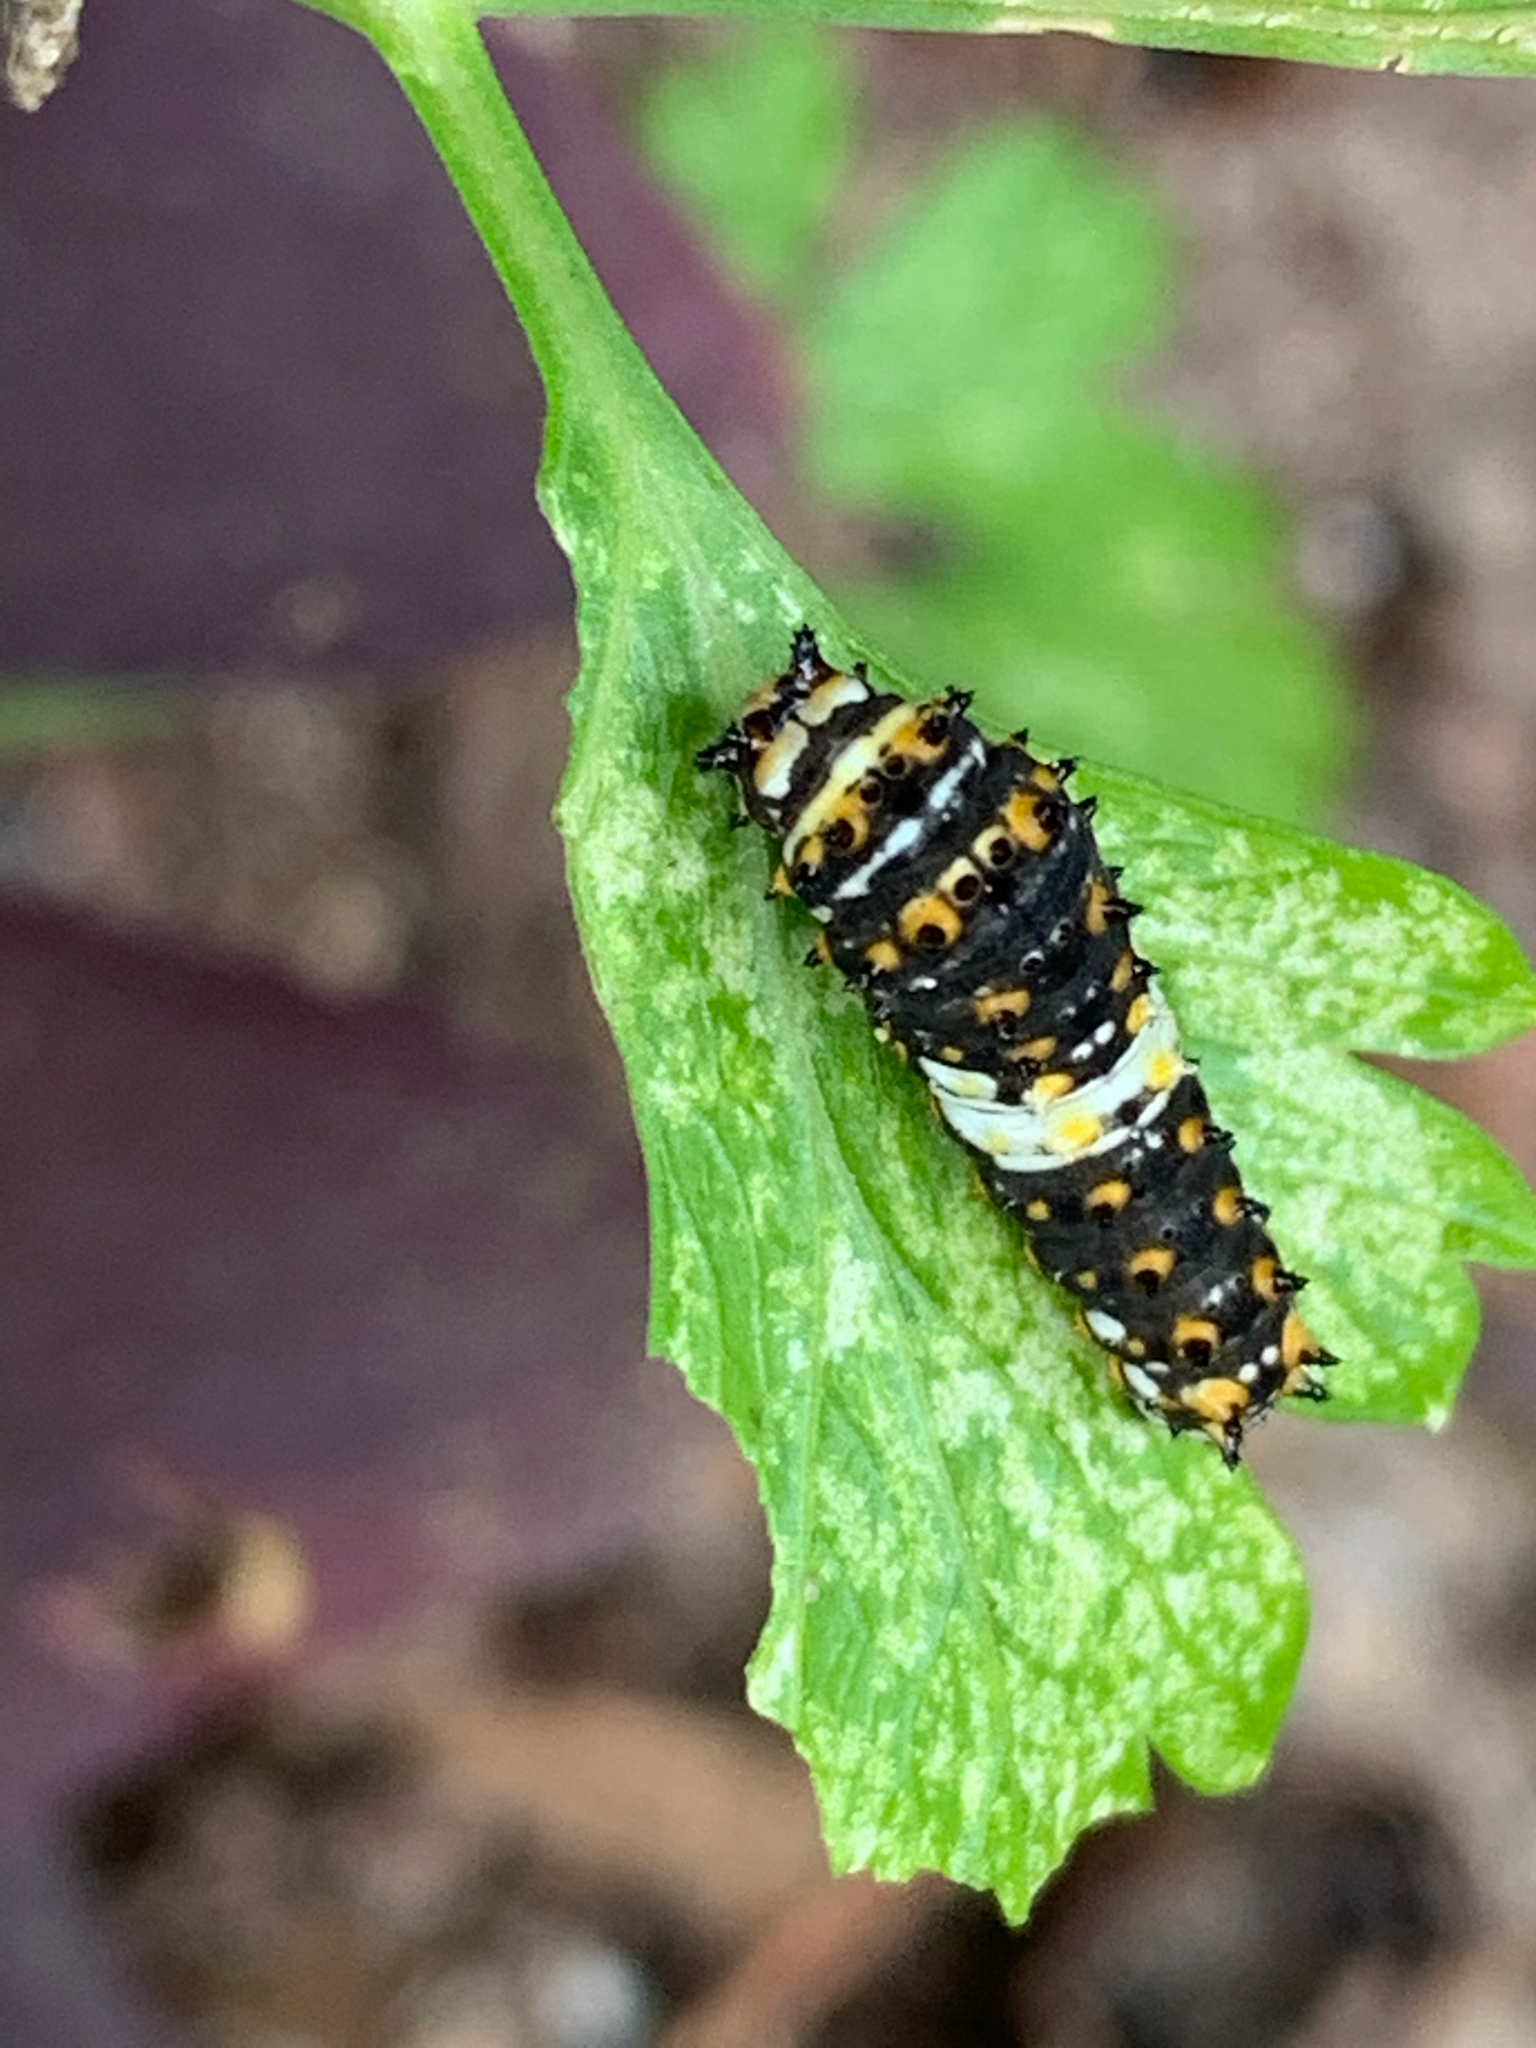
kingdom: Animalia
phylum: Arthropoda
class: Insecta
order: Lepidoptera
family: Papilionidae
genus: Papilio
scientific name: Papilio polyxenes
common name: Black swallowtail
